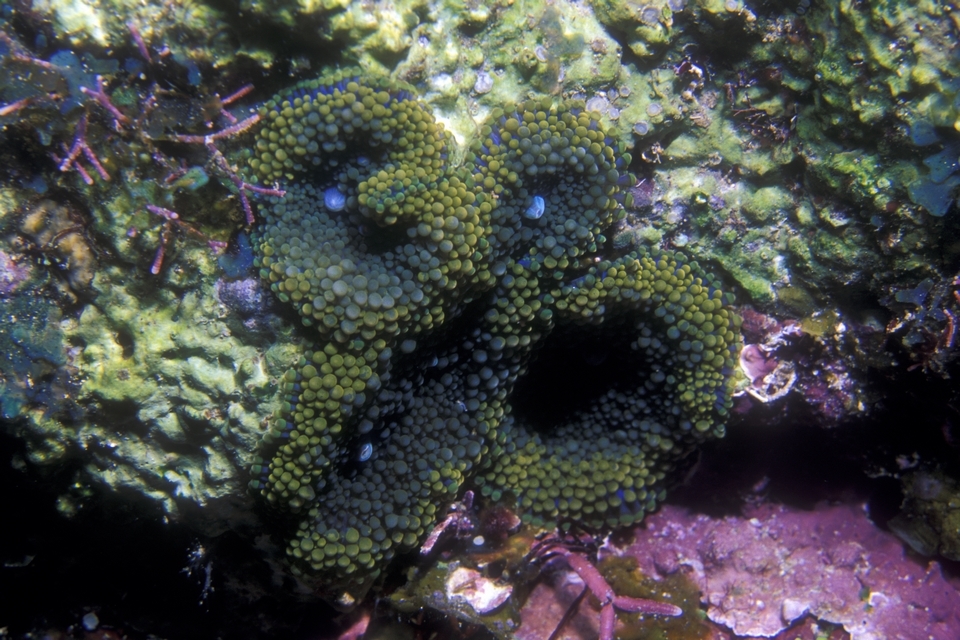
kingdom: Animalia
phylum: Cnidaria
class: Anthozoa
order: Corallimorpharia
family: Ricordeidae
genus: Ricordea
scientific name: Ricordea florida
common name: False coral
